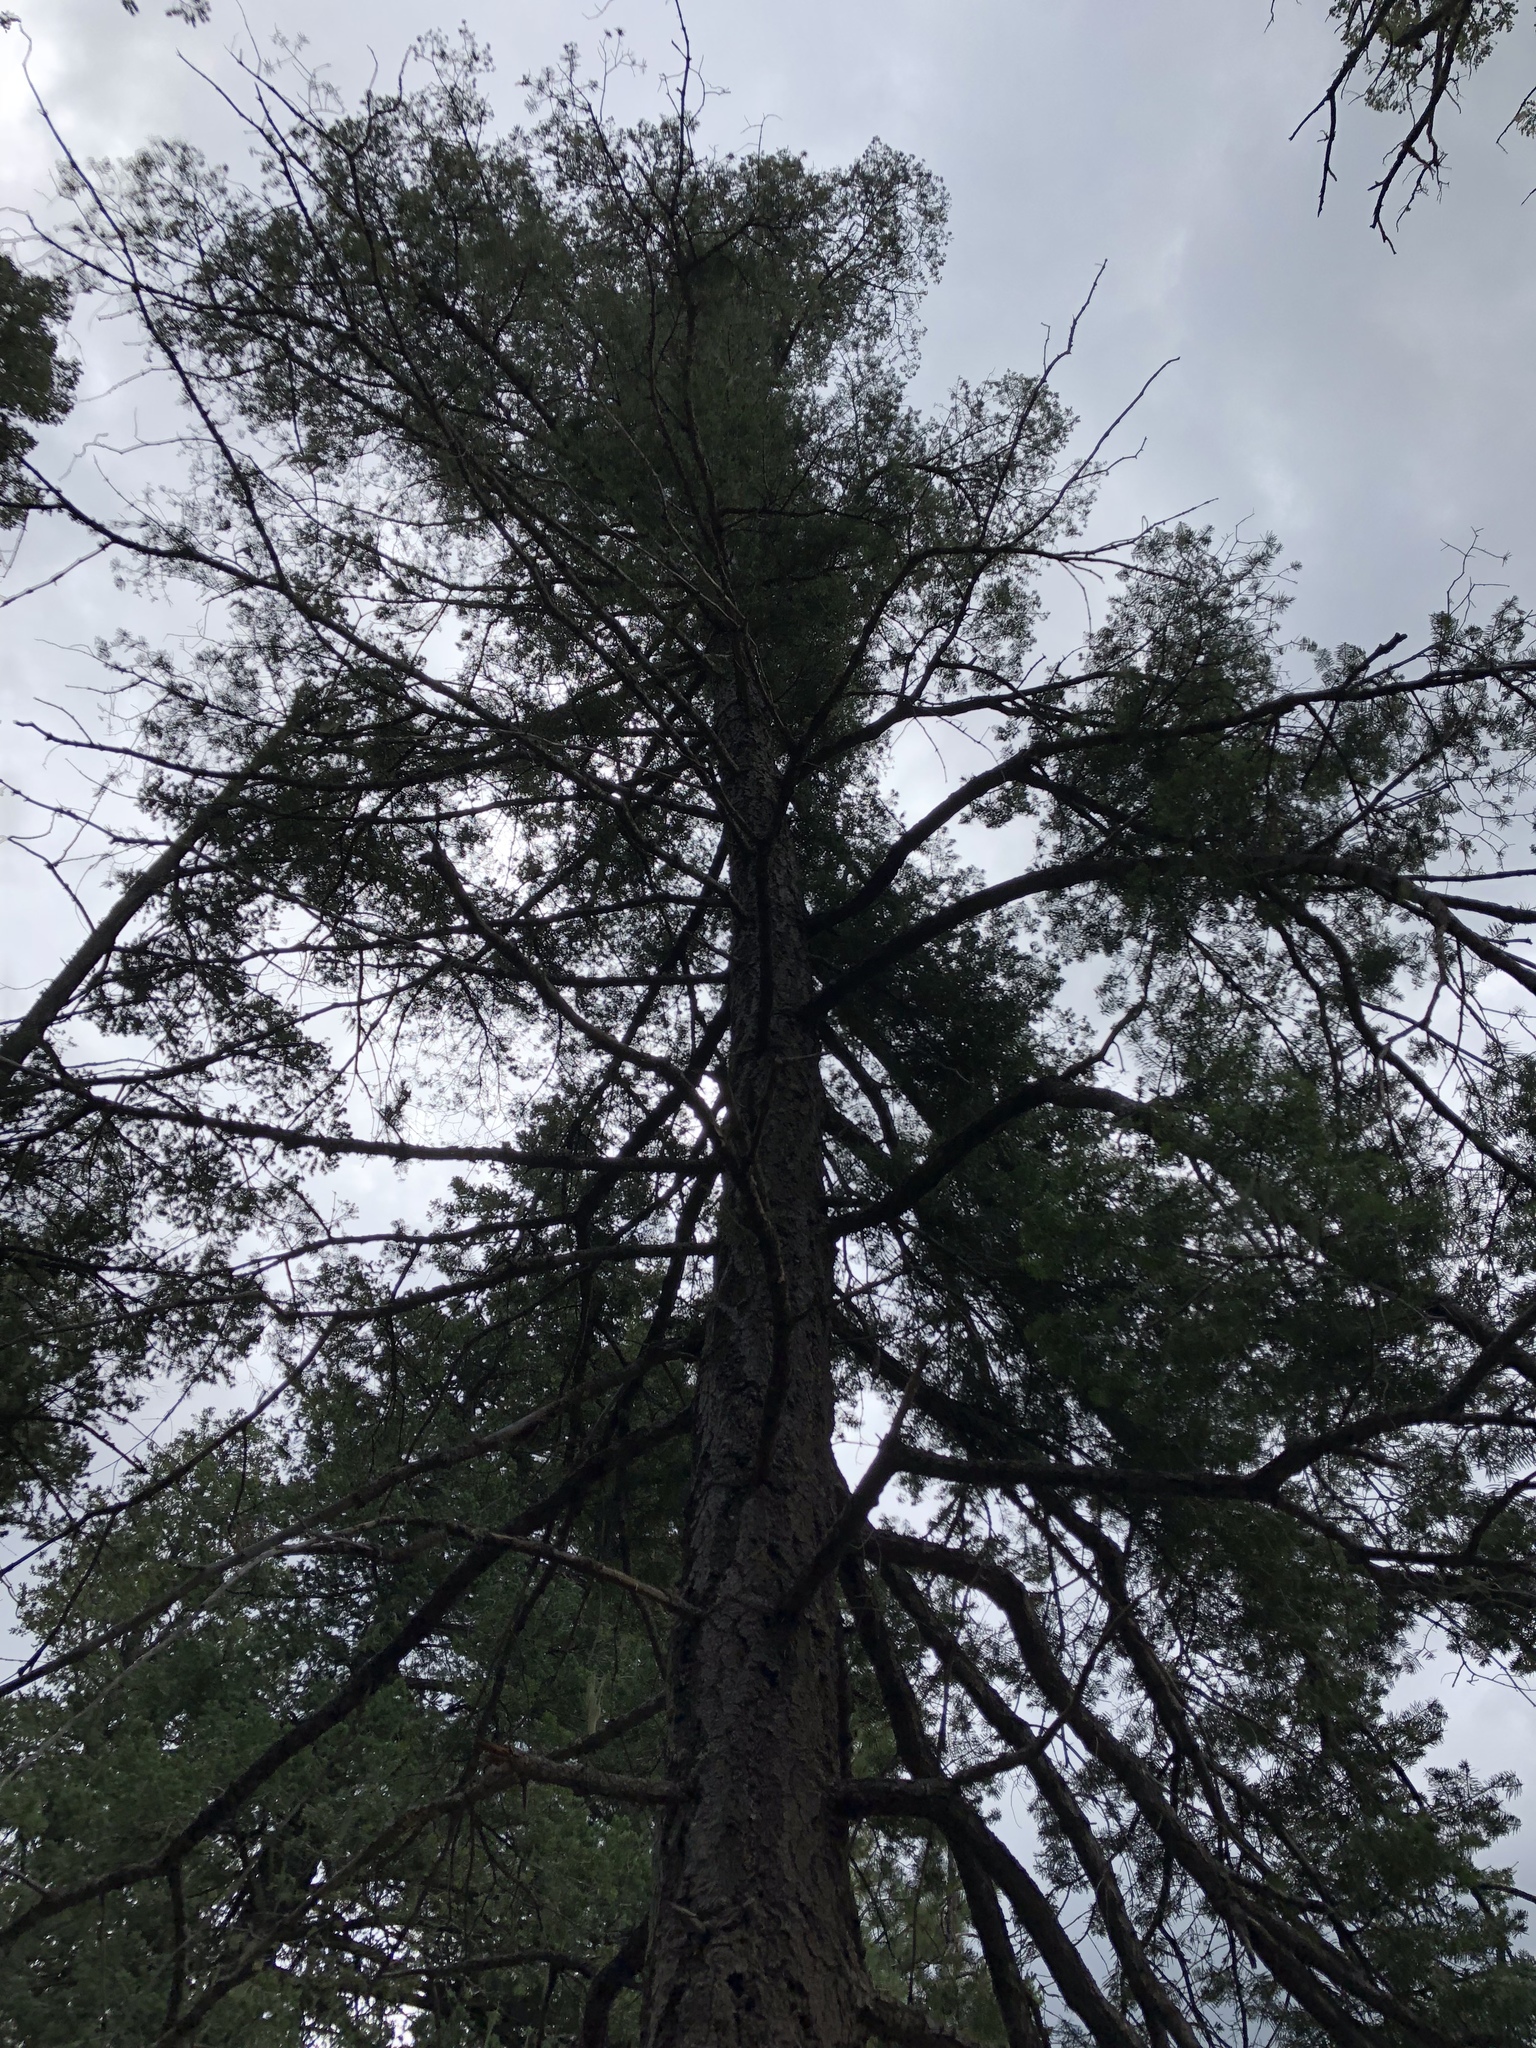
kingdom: Plantae
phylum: Tracheophyta
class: Pinopsida
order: Pinales
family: Pinaceae
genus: Pseudotsuga
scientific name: Pseudotsuga menziesii
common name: Douglas fir
